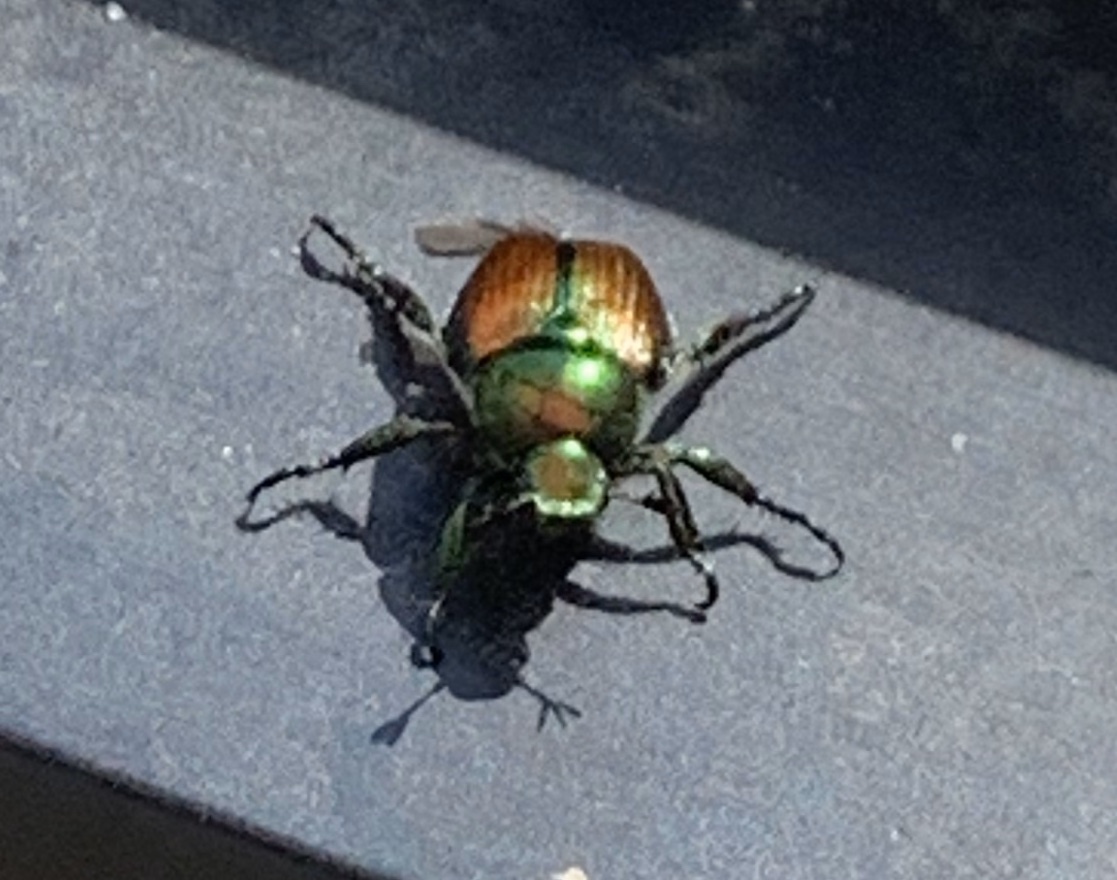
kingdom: Animalia
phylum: Arthropoda
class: Insecta
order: Coleoptera
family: Scarabaeidae
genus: Popillia
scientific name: Popillia japonica
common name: Japanese beetle
